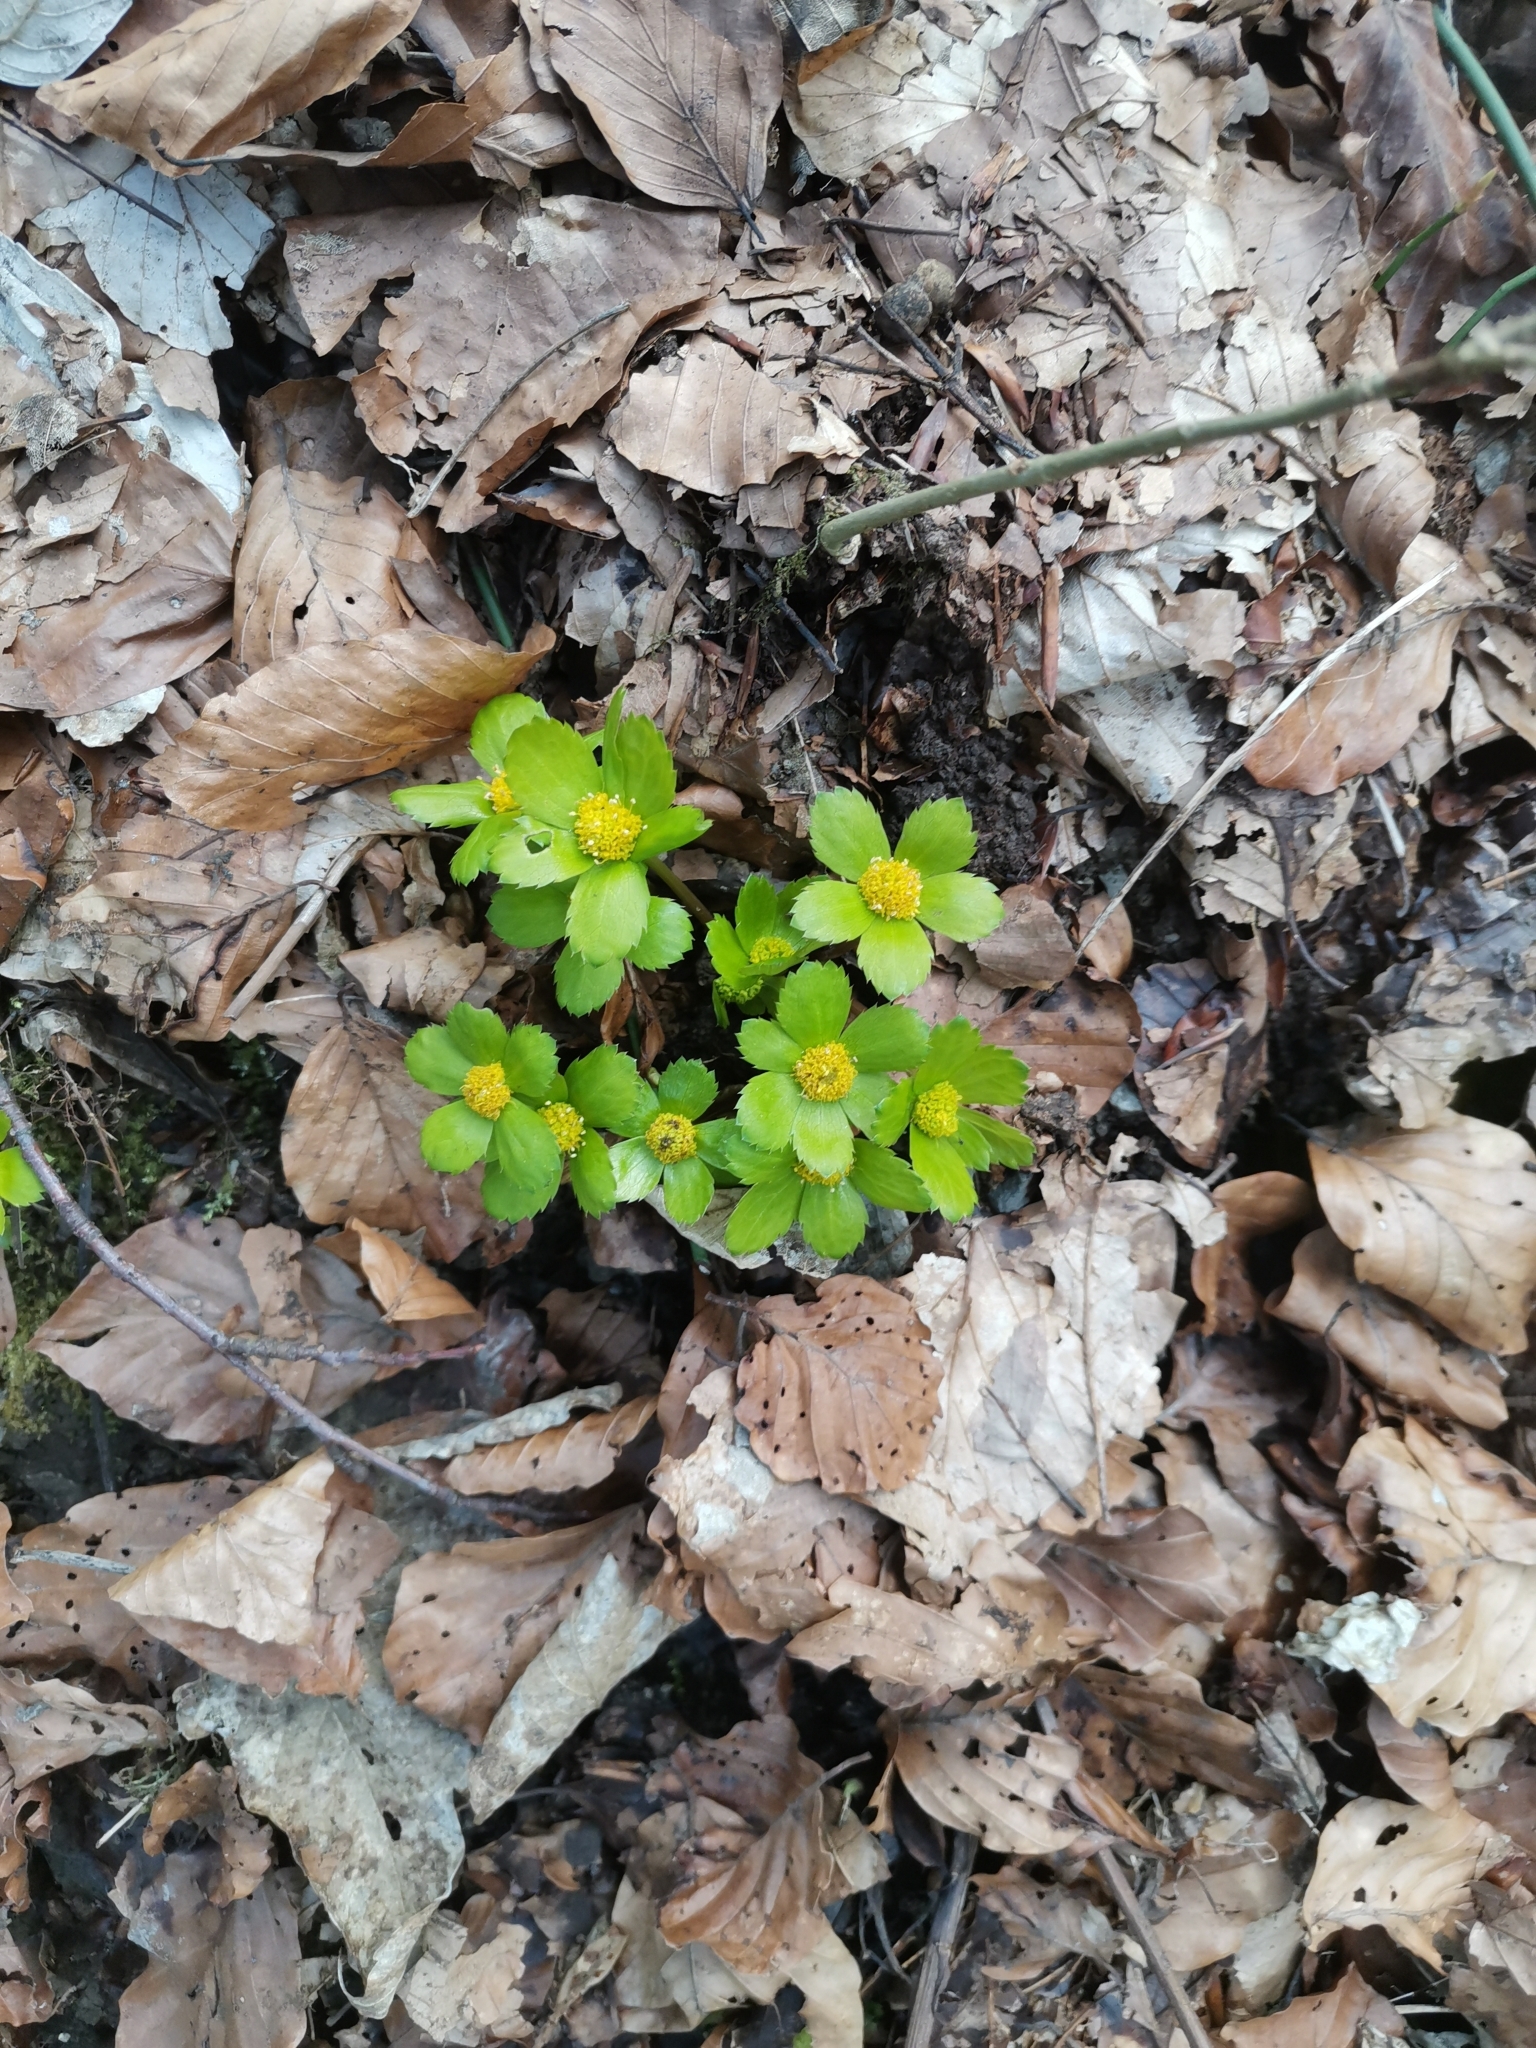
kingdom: Plantae
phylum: Tracheophyta
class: Magnoliopsida
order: Apiales
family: Apiaceae
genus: Sanicula
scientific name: Sanicula epipactis
